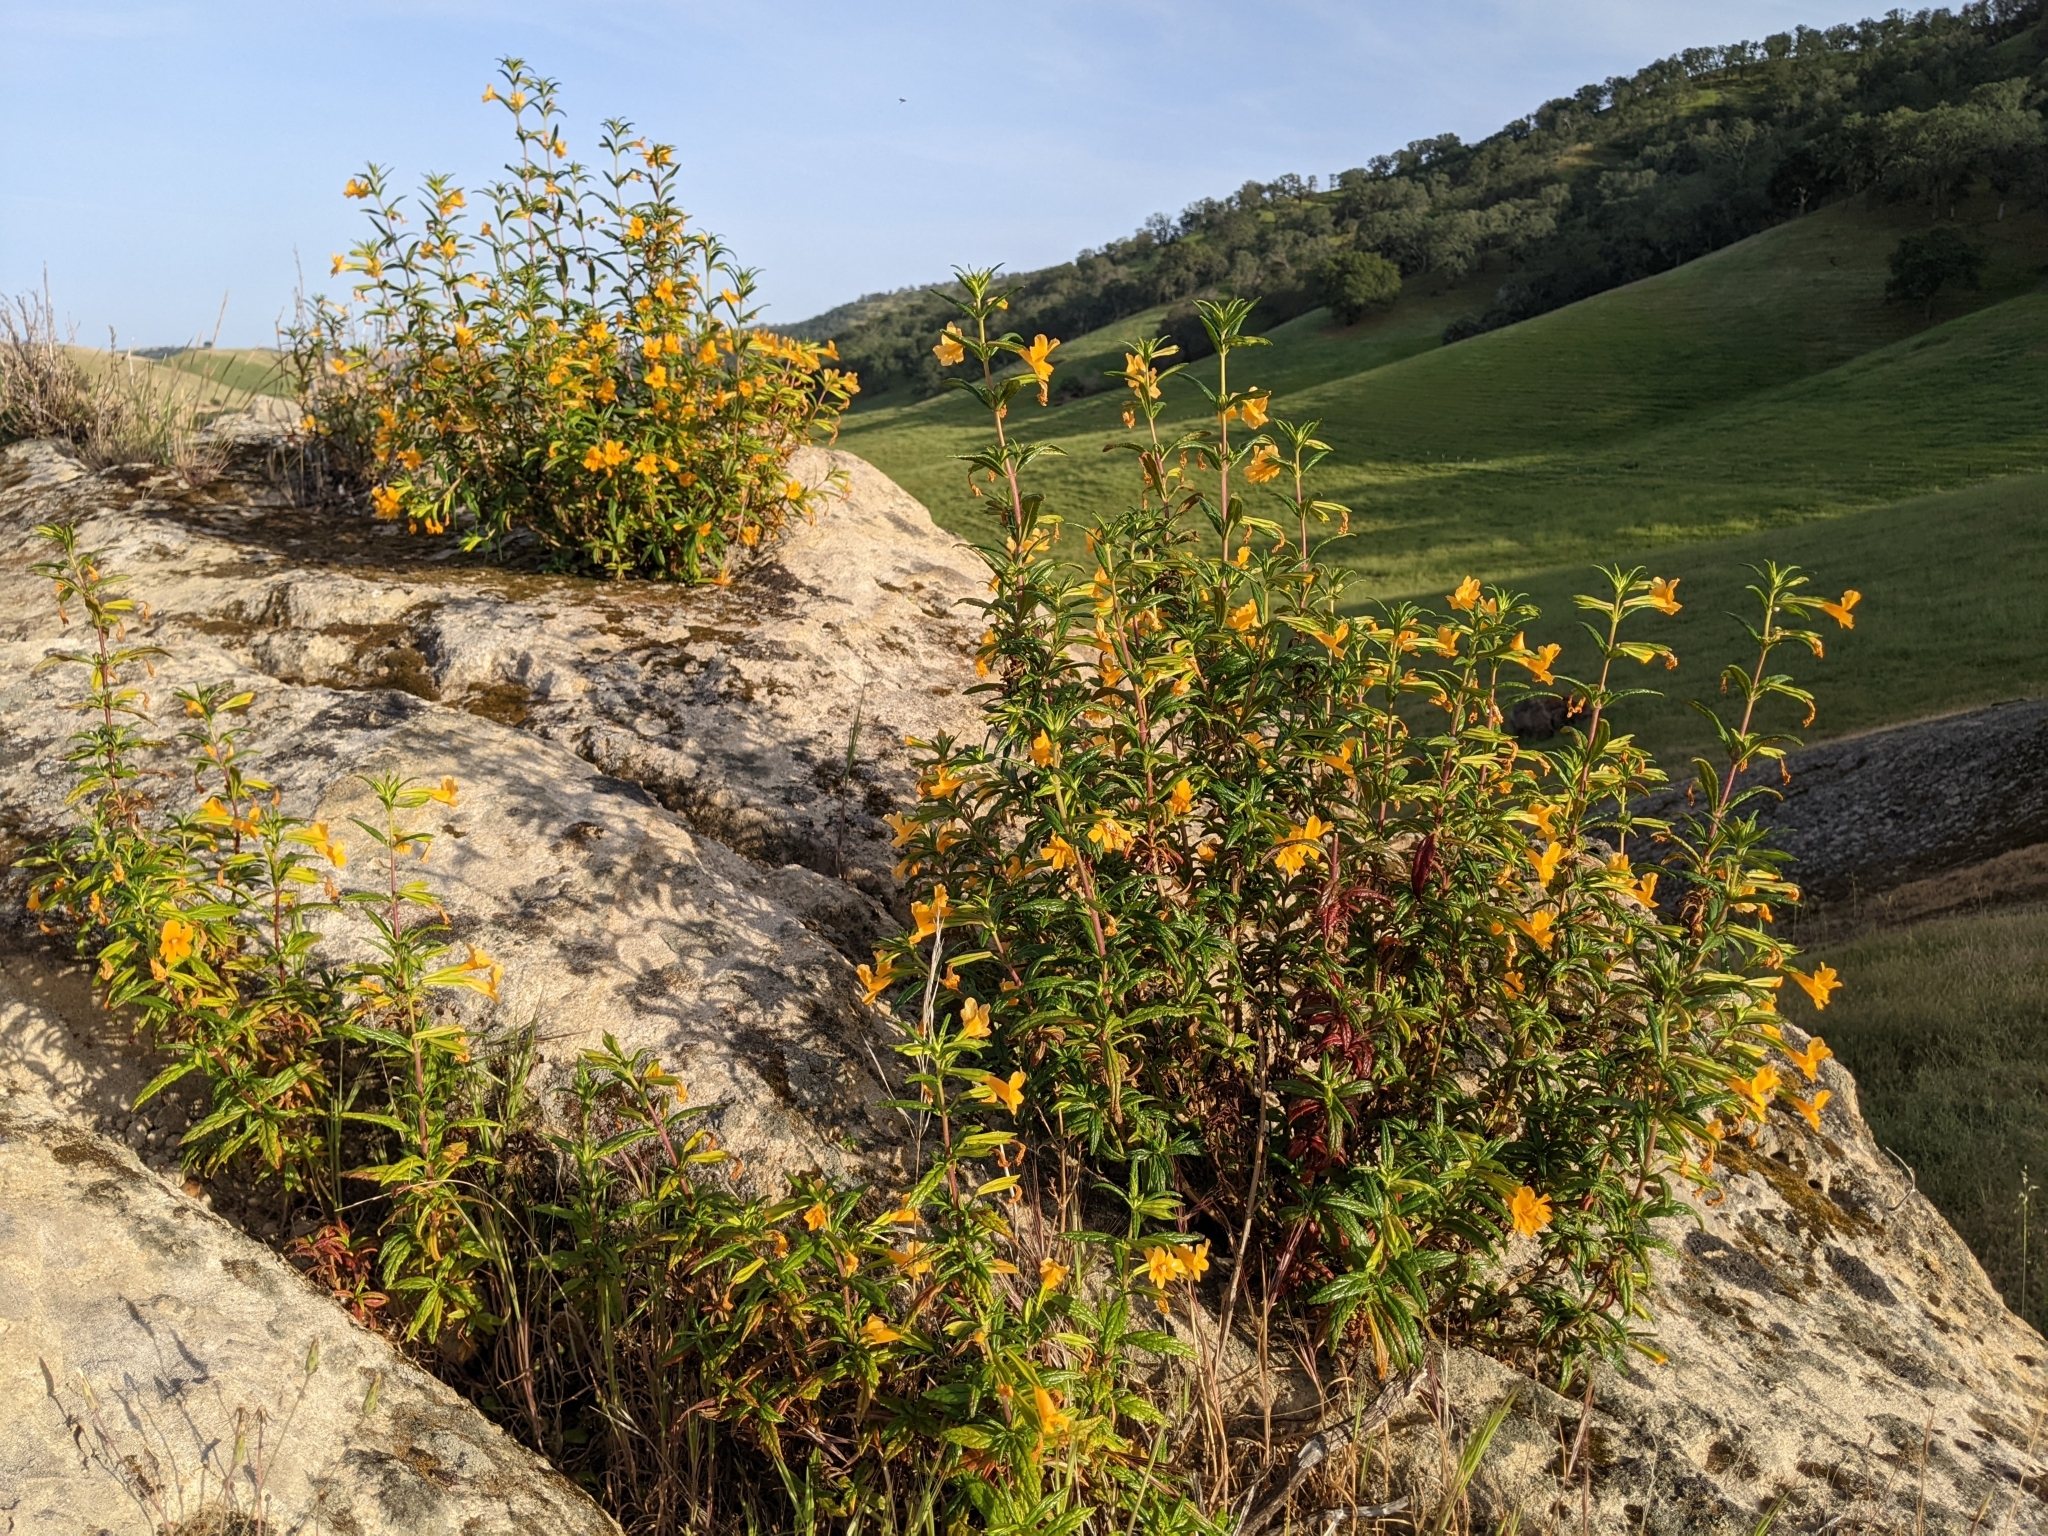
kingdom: Plantae
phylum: Tracheophyta
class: Magnoliopsida
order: Lamiales
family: Phrymaceae
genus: Diplacus
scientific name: Diplacus aurantiacus
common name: Bush monkey-flower
